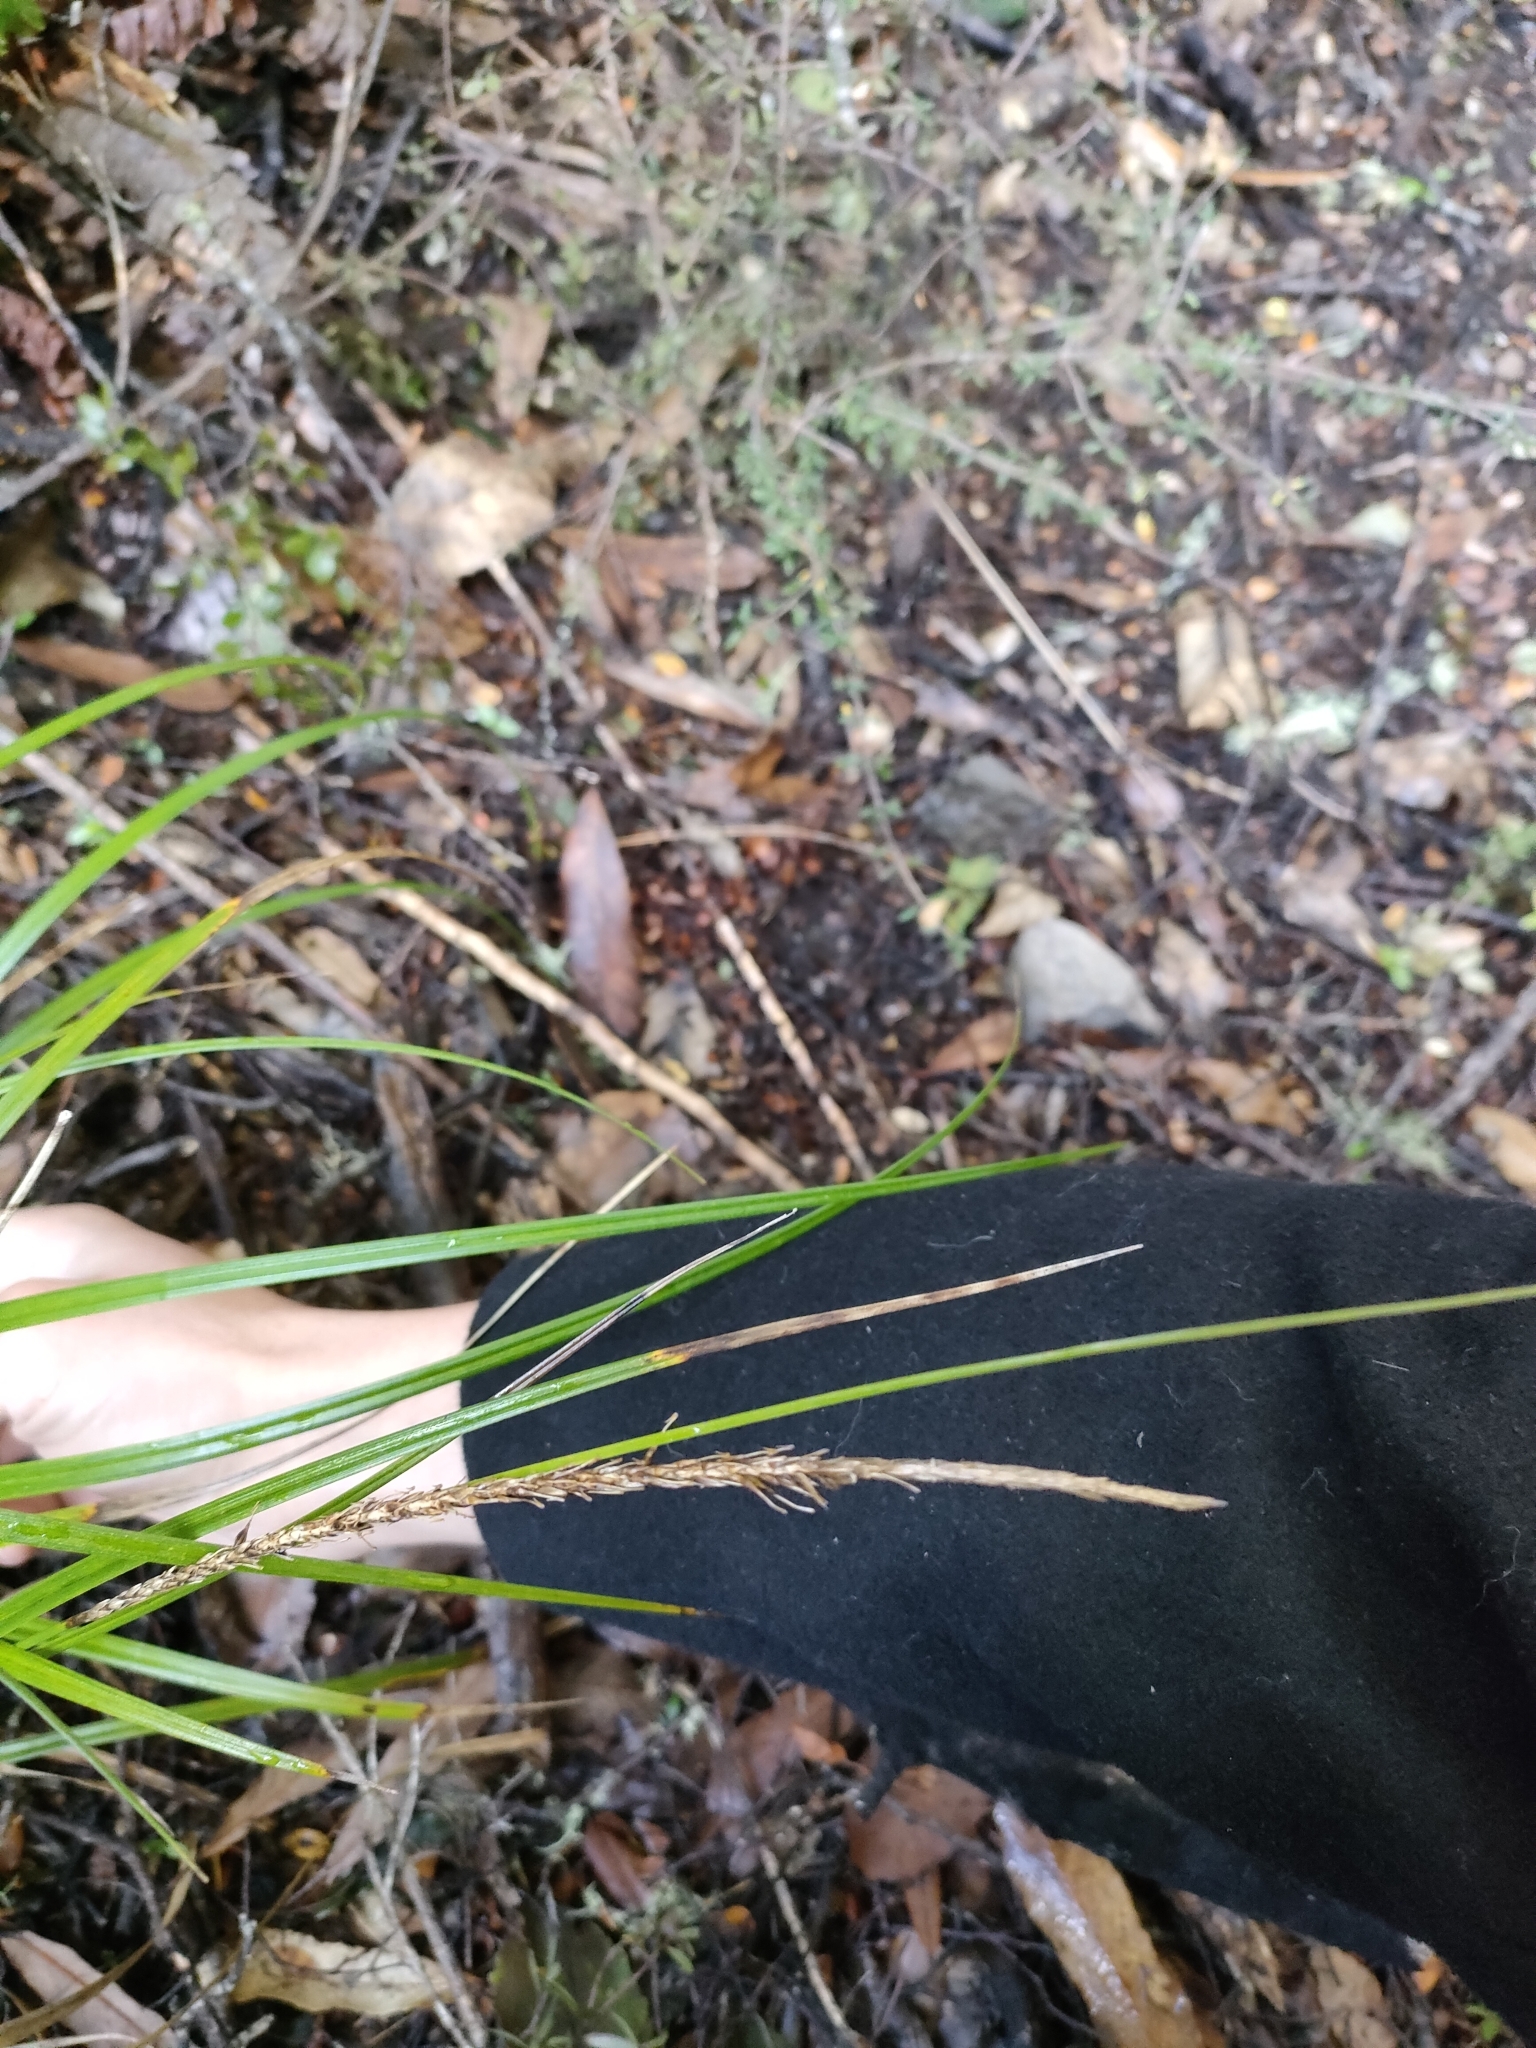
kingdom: Plantae
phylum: Tracheophyta
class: Liliopsida
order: Poales
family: Cyperaceae
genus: Carex
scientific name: Carex uncinata
